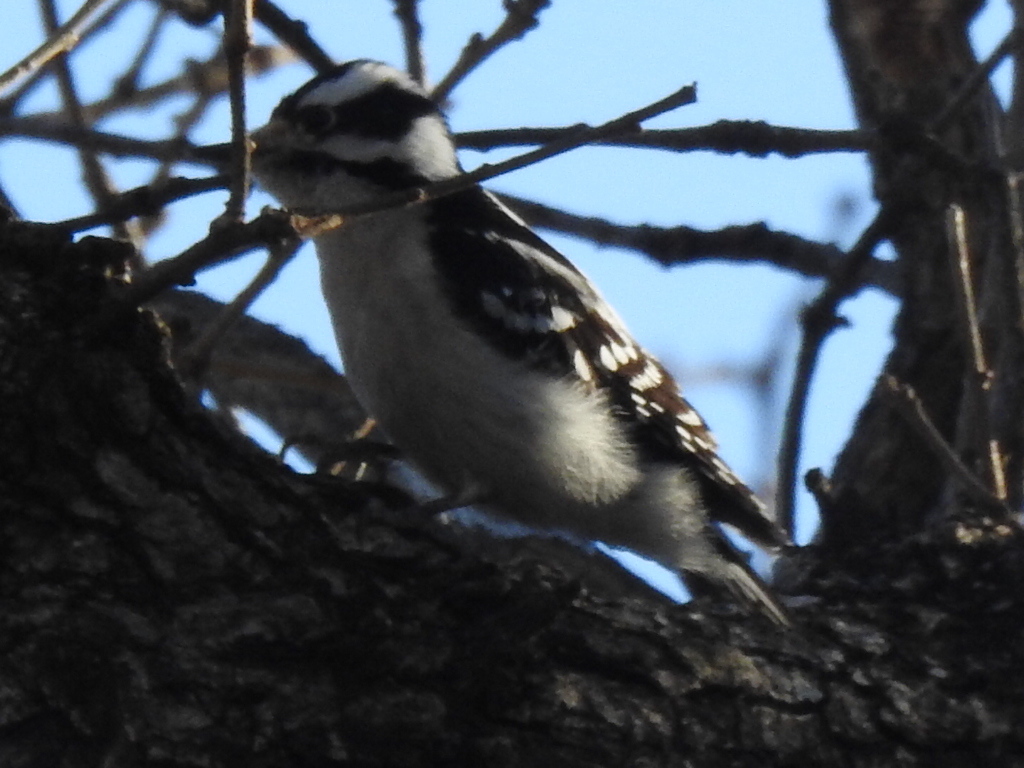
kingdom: Animalia
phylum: Chordata
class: Aves
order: Piciformes
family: Picidae
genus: Dryobates
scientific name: Dryobates pubescens
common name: Downy woodpecker
